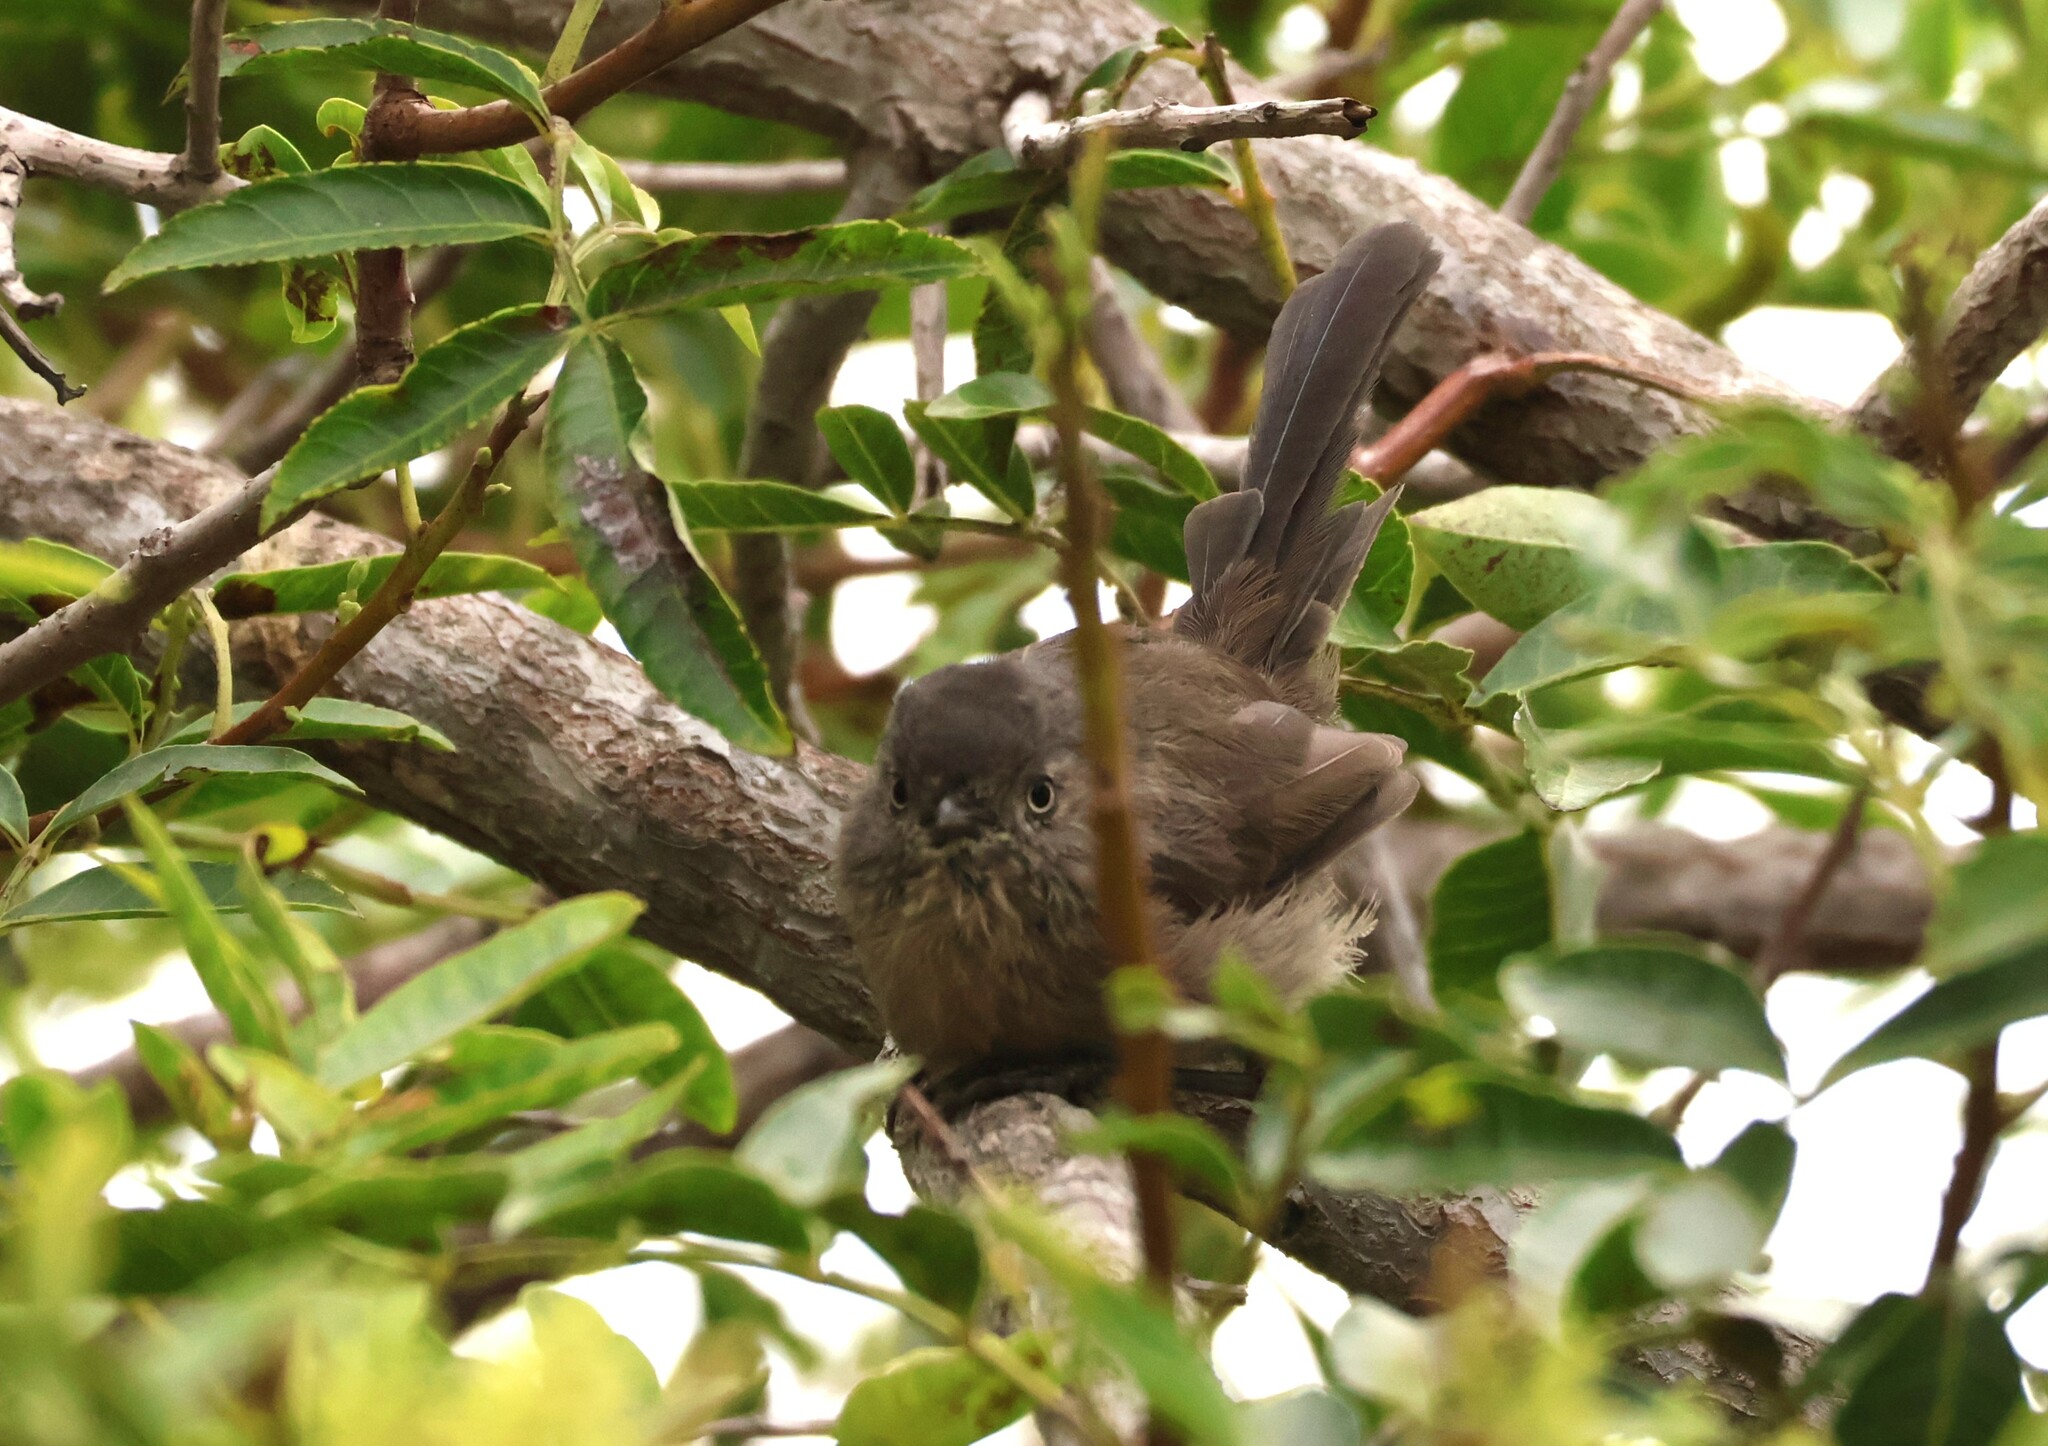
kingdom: Animalia
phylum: Chordata
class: Aves
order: Passeriformes
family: Sylviidae
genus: Chamaea
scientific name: Chamaea fasciata
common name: Wrentit
